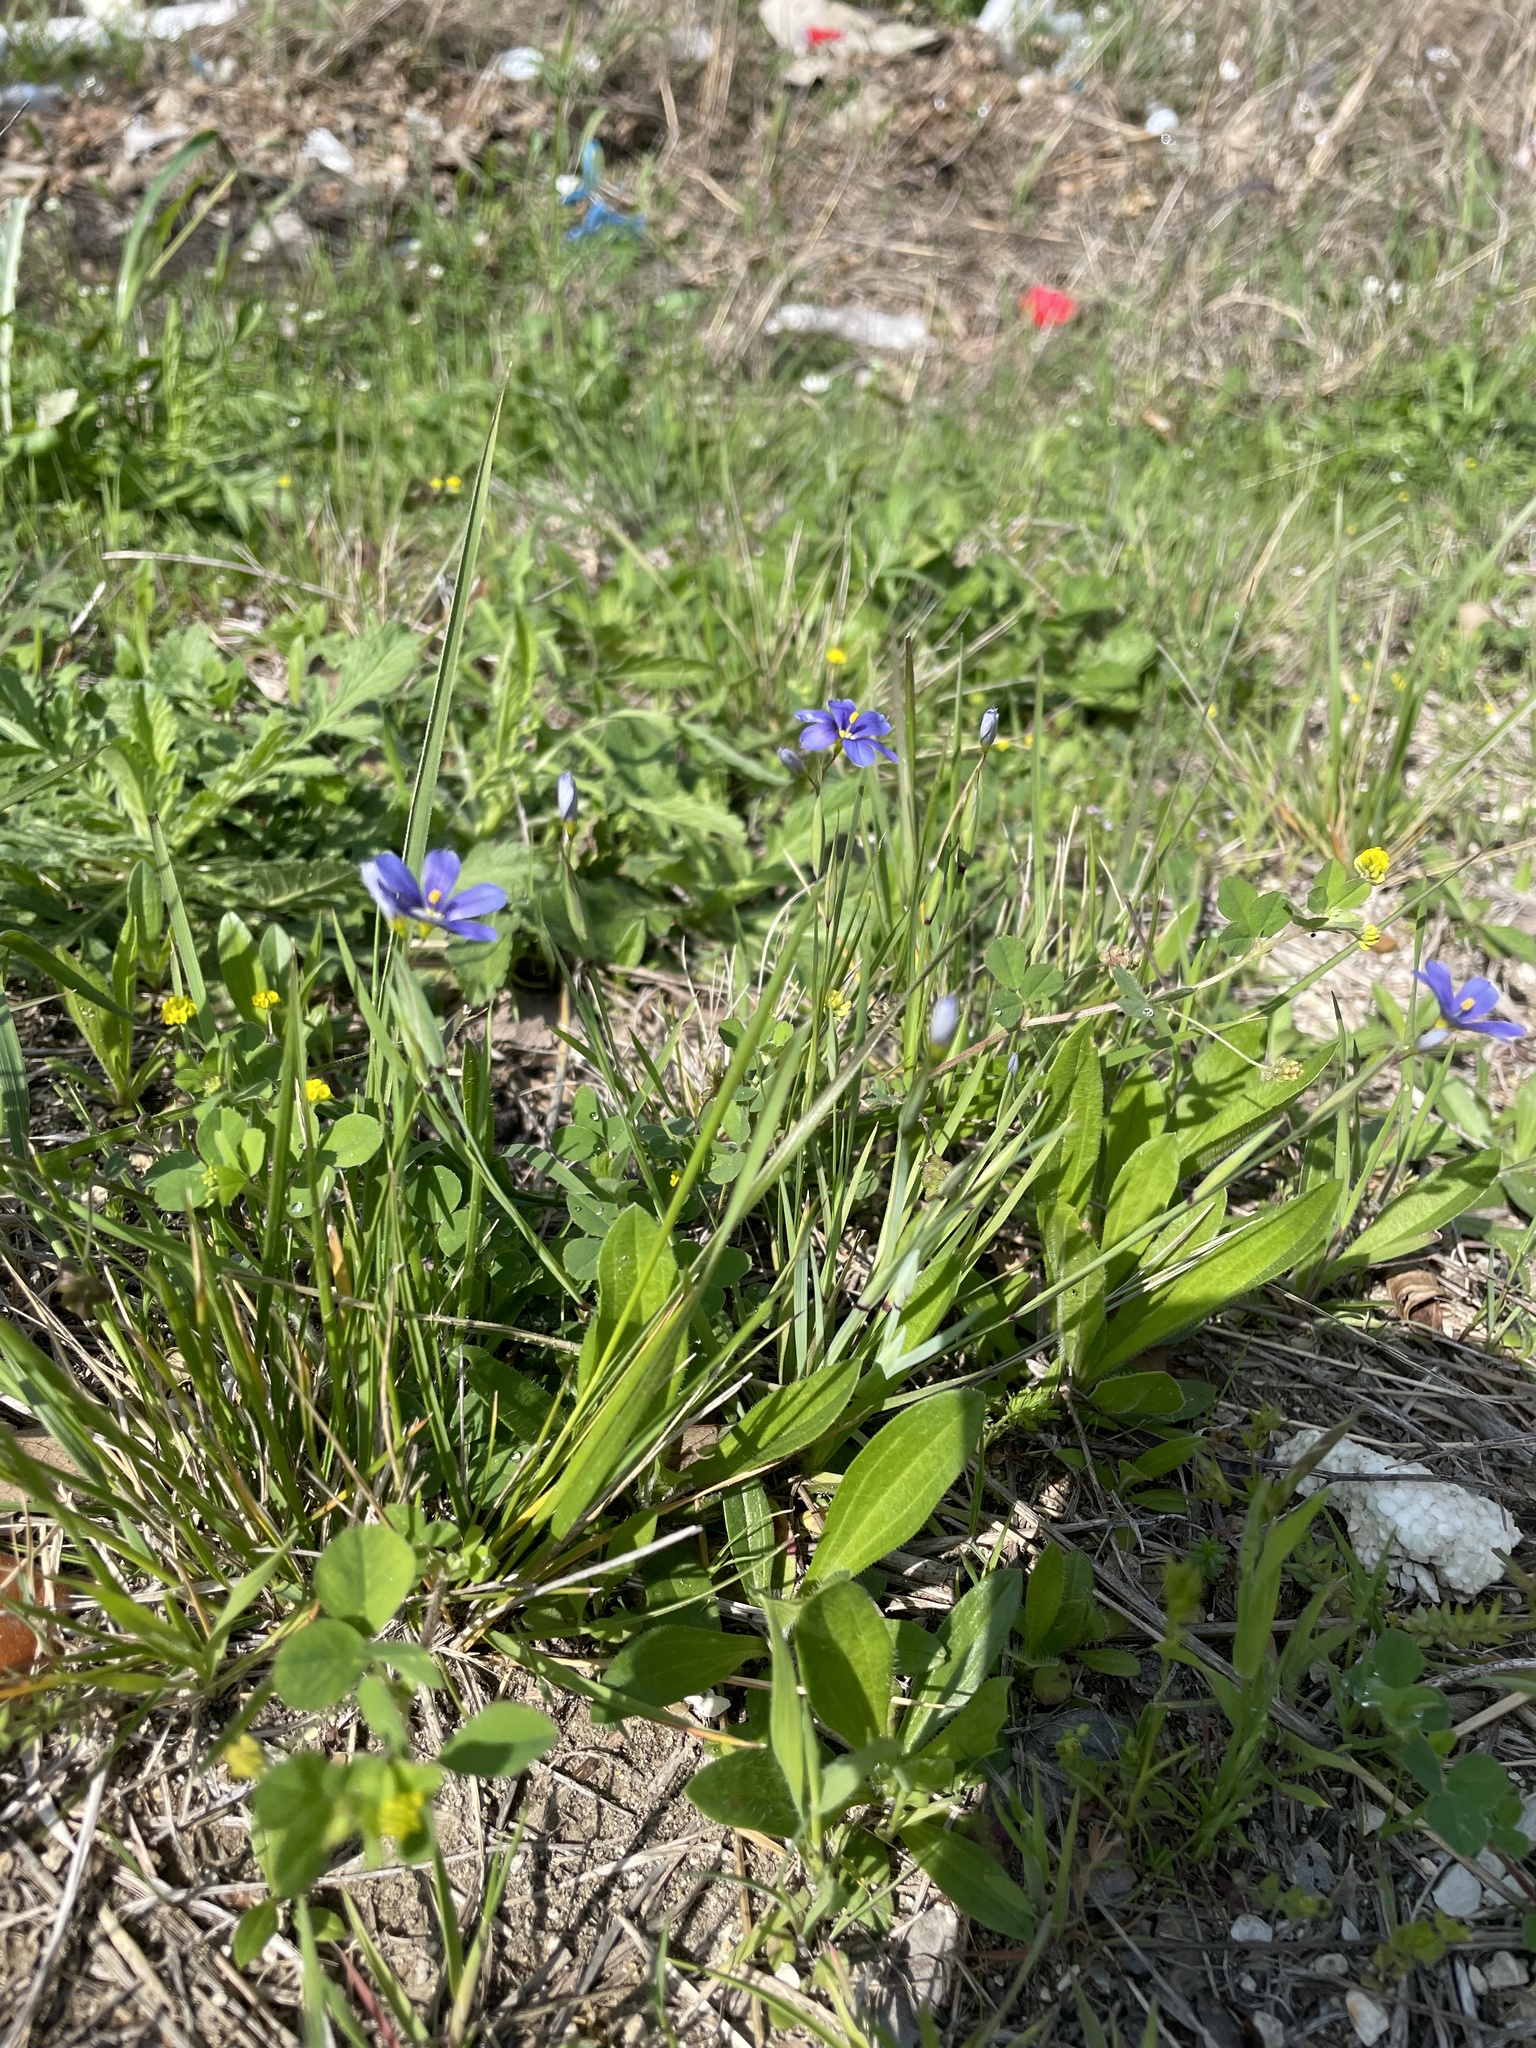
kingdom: Plantae
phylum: Tracheophyta
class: Liliopsida
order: Asparagales
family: Iridaceae
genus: Sisyrinchium
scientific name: Sisyrinchium pruinosum
